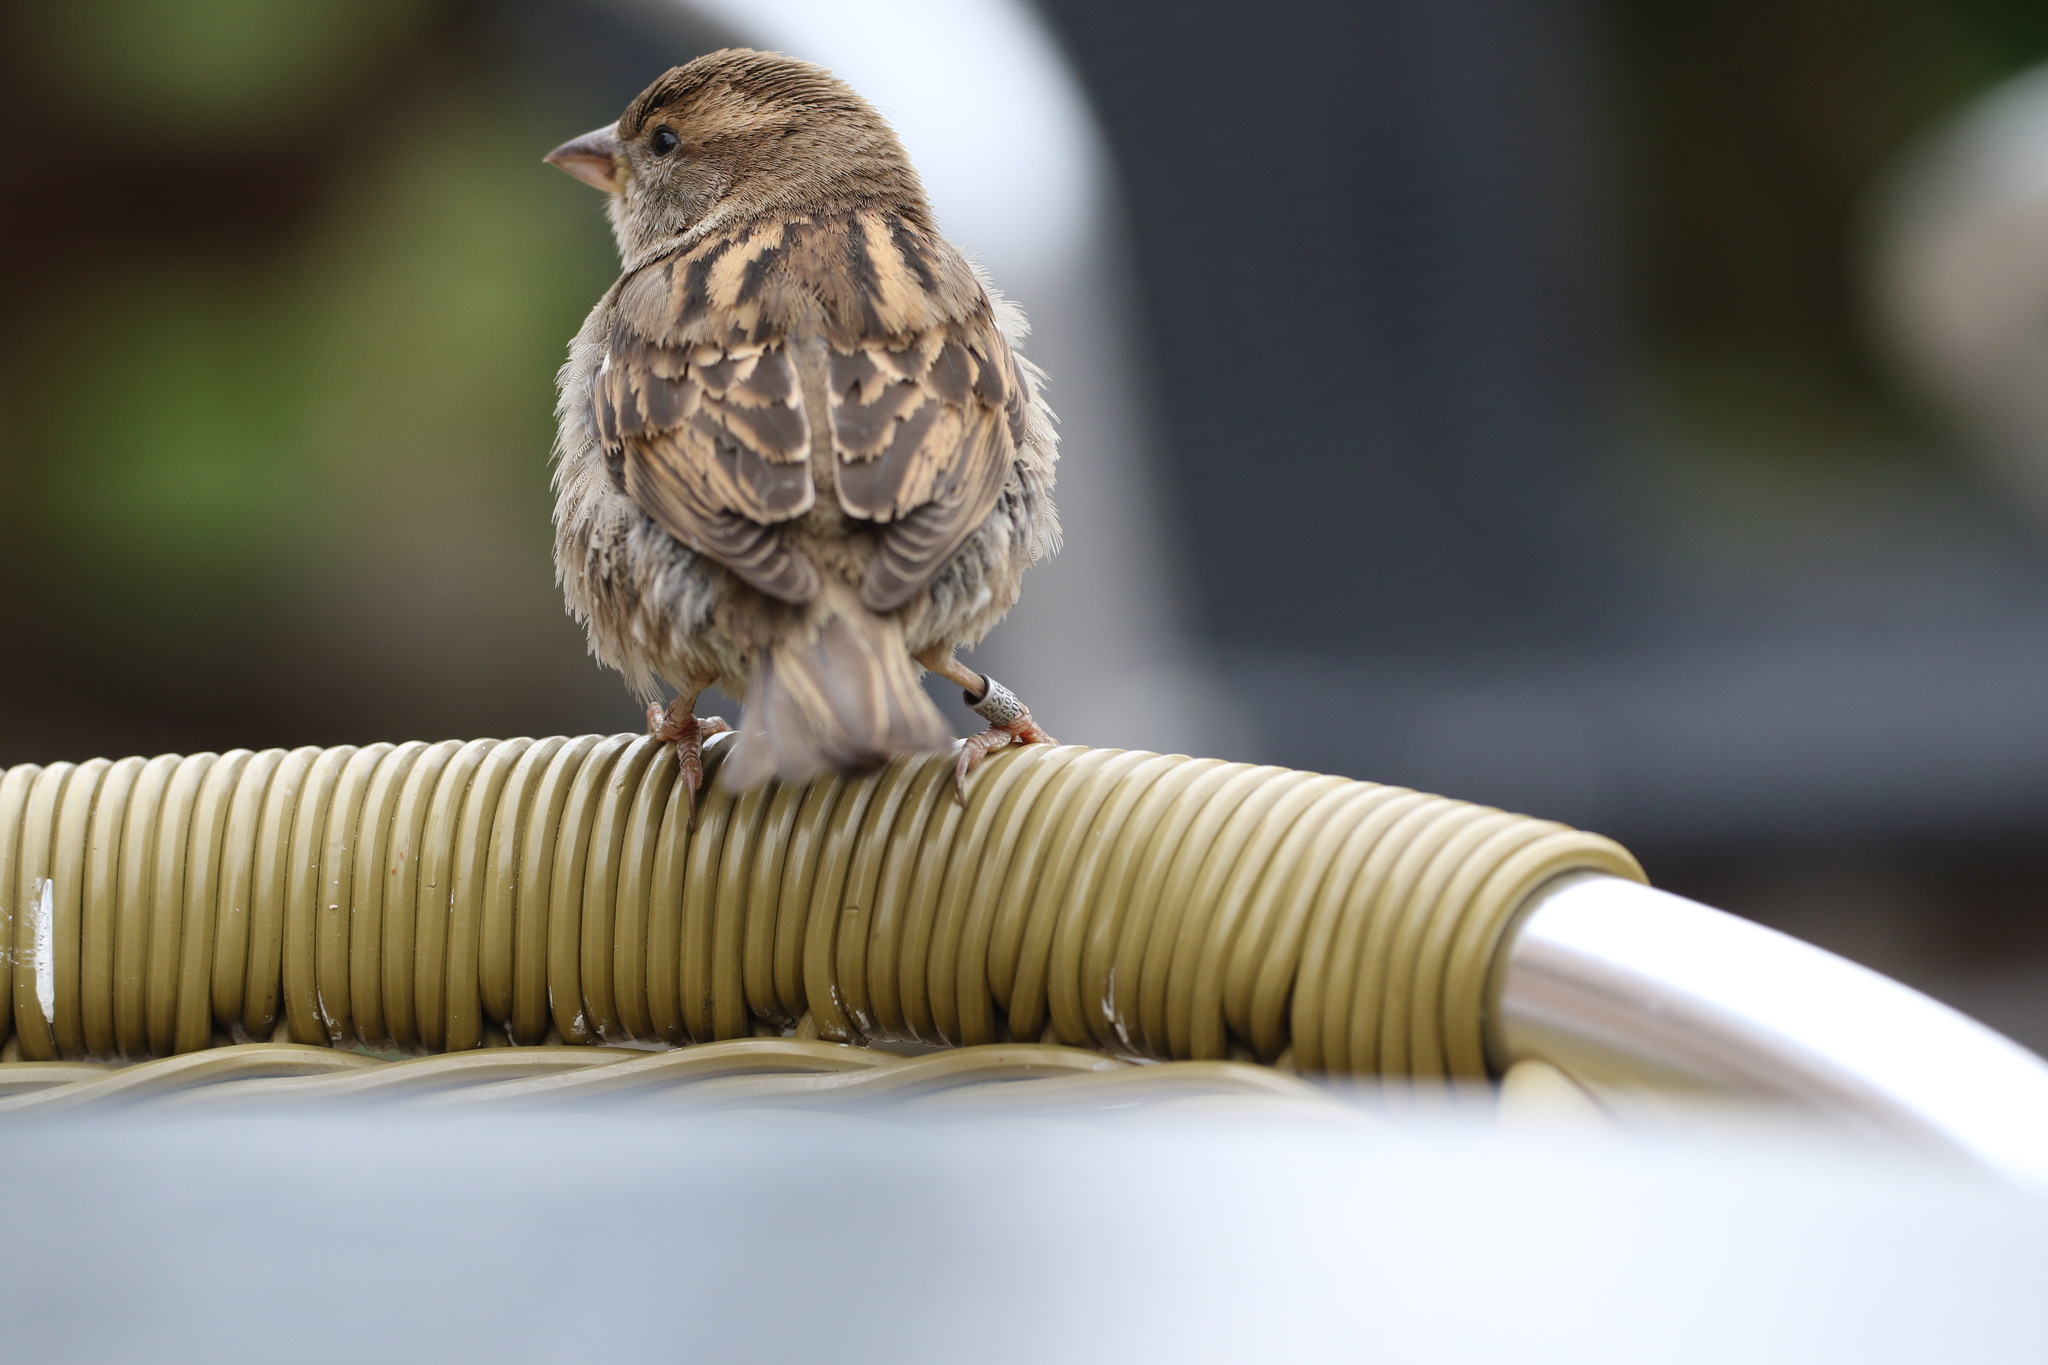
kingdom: Animalia
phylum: Chordata
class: Aves
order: Passeriformes
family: Passeridae
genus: Passer
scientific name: Passer domesticus
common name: House sparrow
